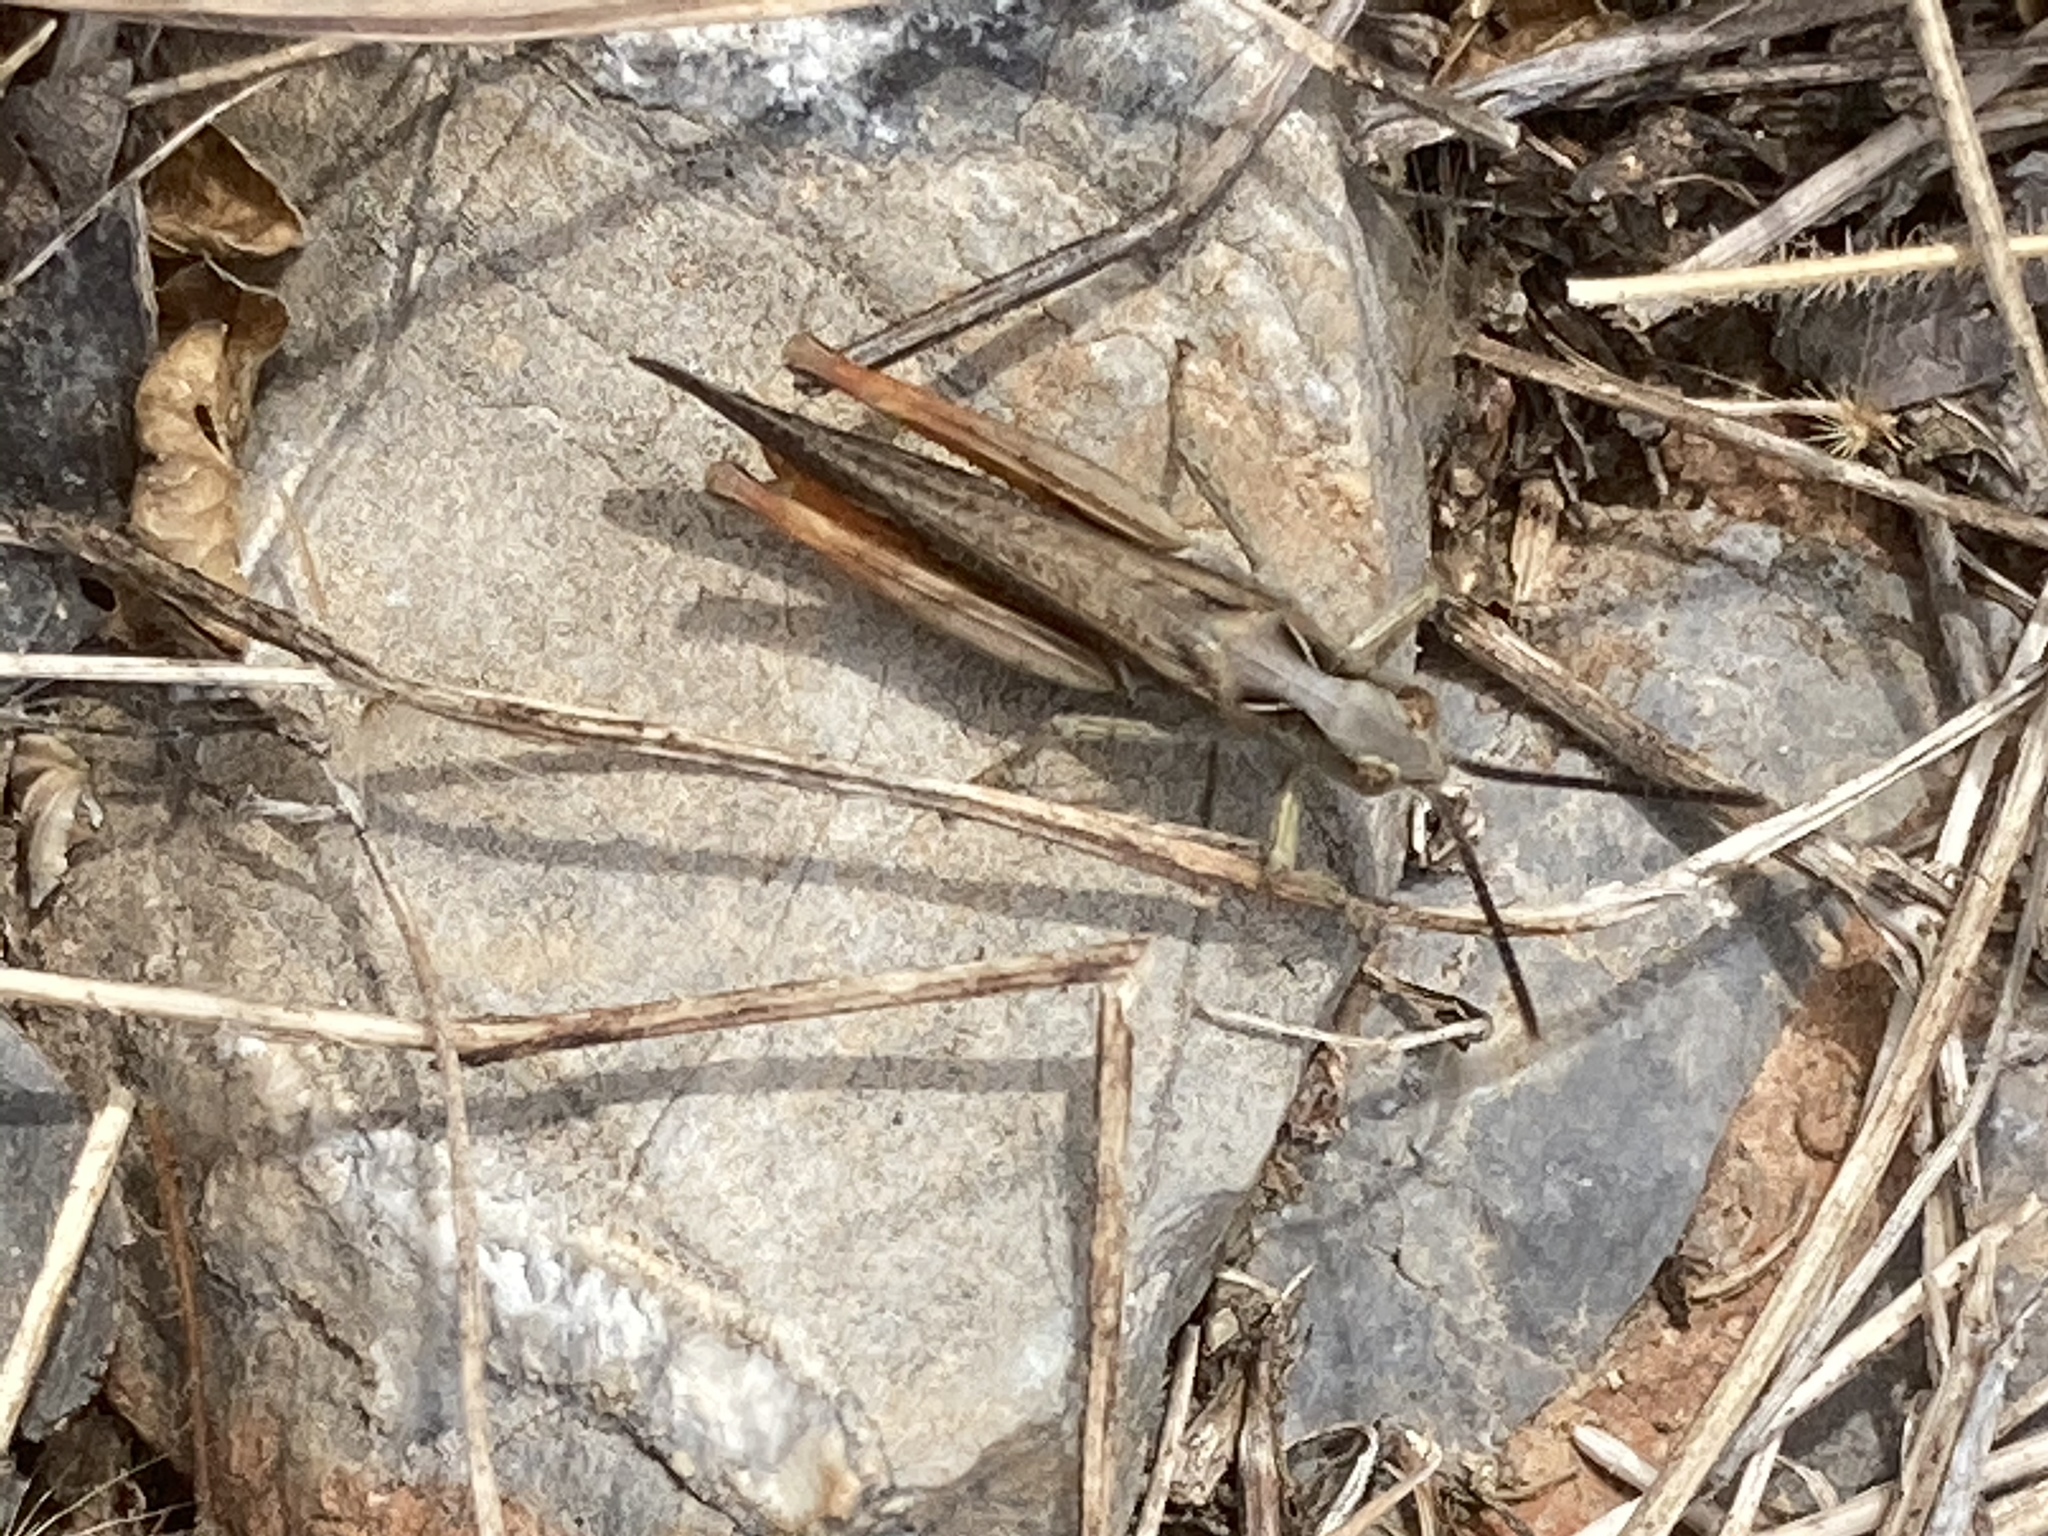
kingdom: Animalia
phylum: Arthropoda
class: Insecta
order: Orthoptera
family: Acrididae
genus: Chorthippus
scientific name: Chorthippus maritimus
